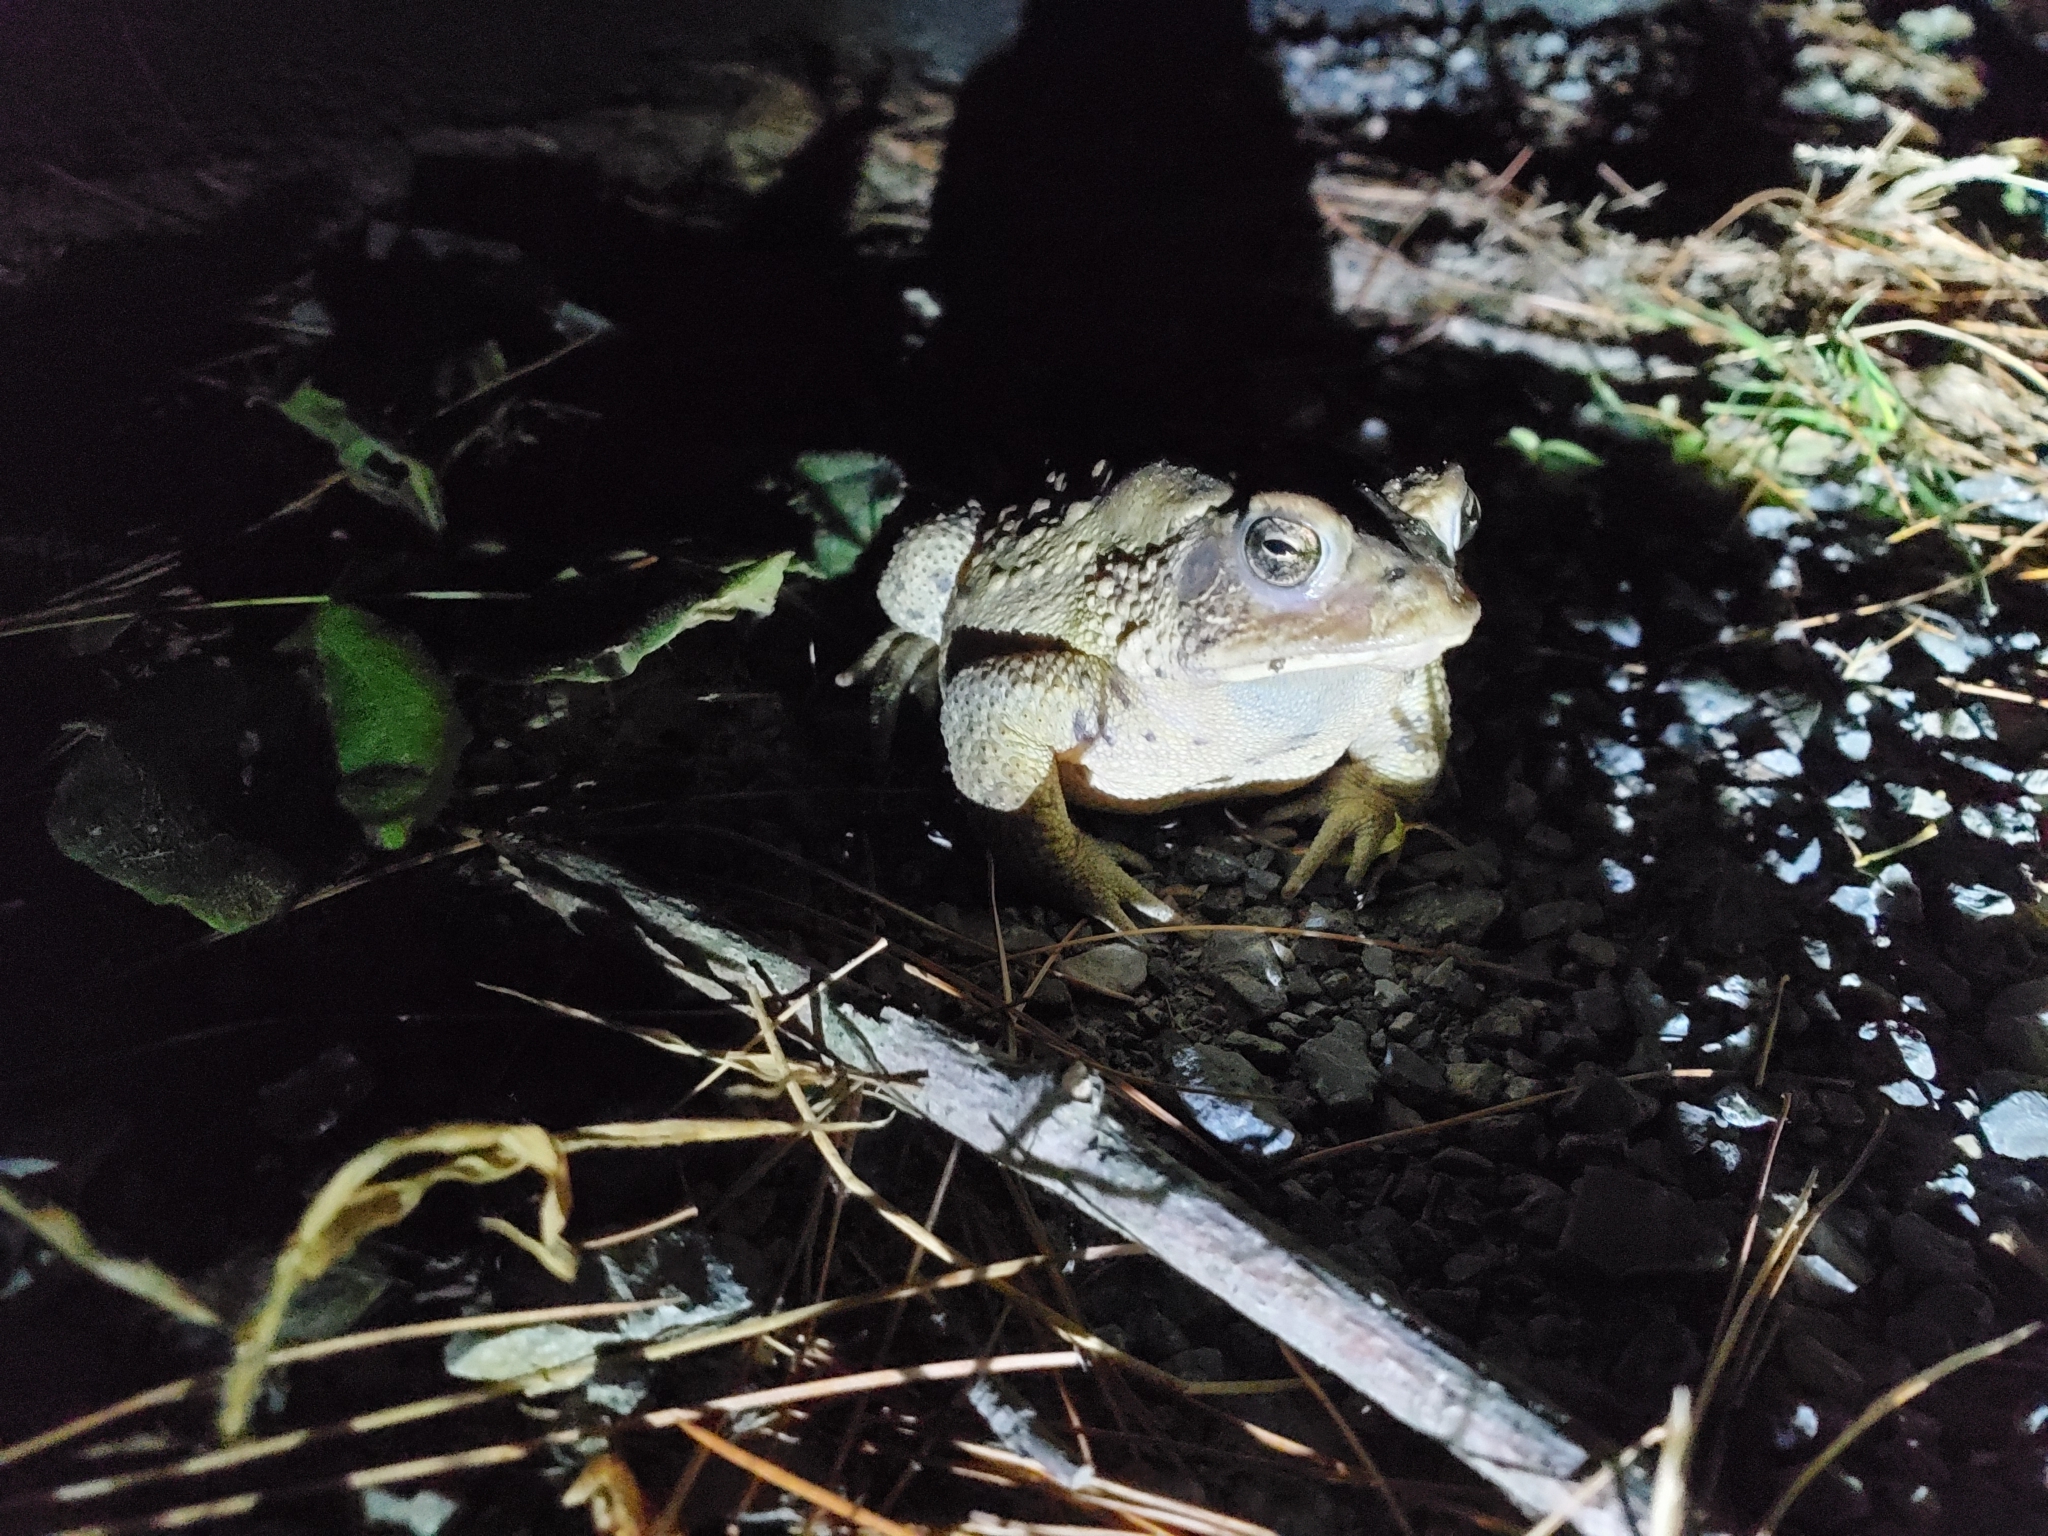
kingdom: Animalia
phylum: Chordata
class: Amphibia
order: Anura
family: Bufonidae
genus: Anaxyrus
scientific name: Anaxyrus americanus
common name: American toad
